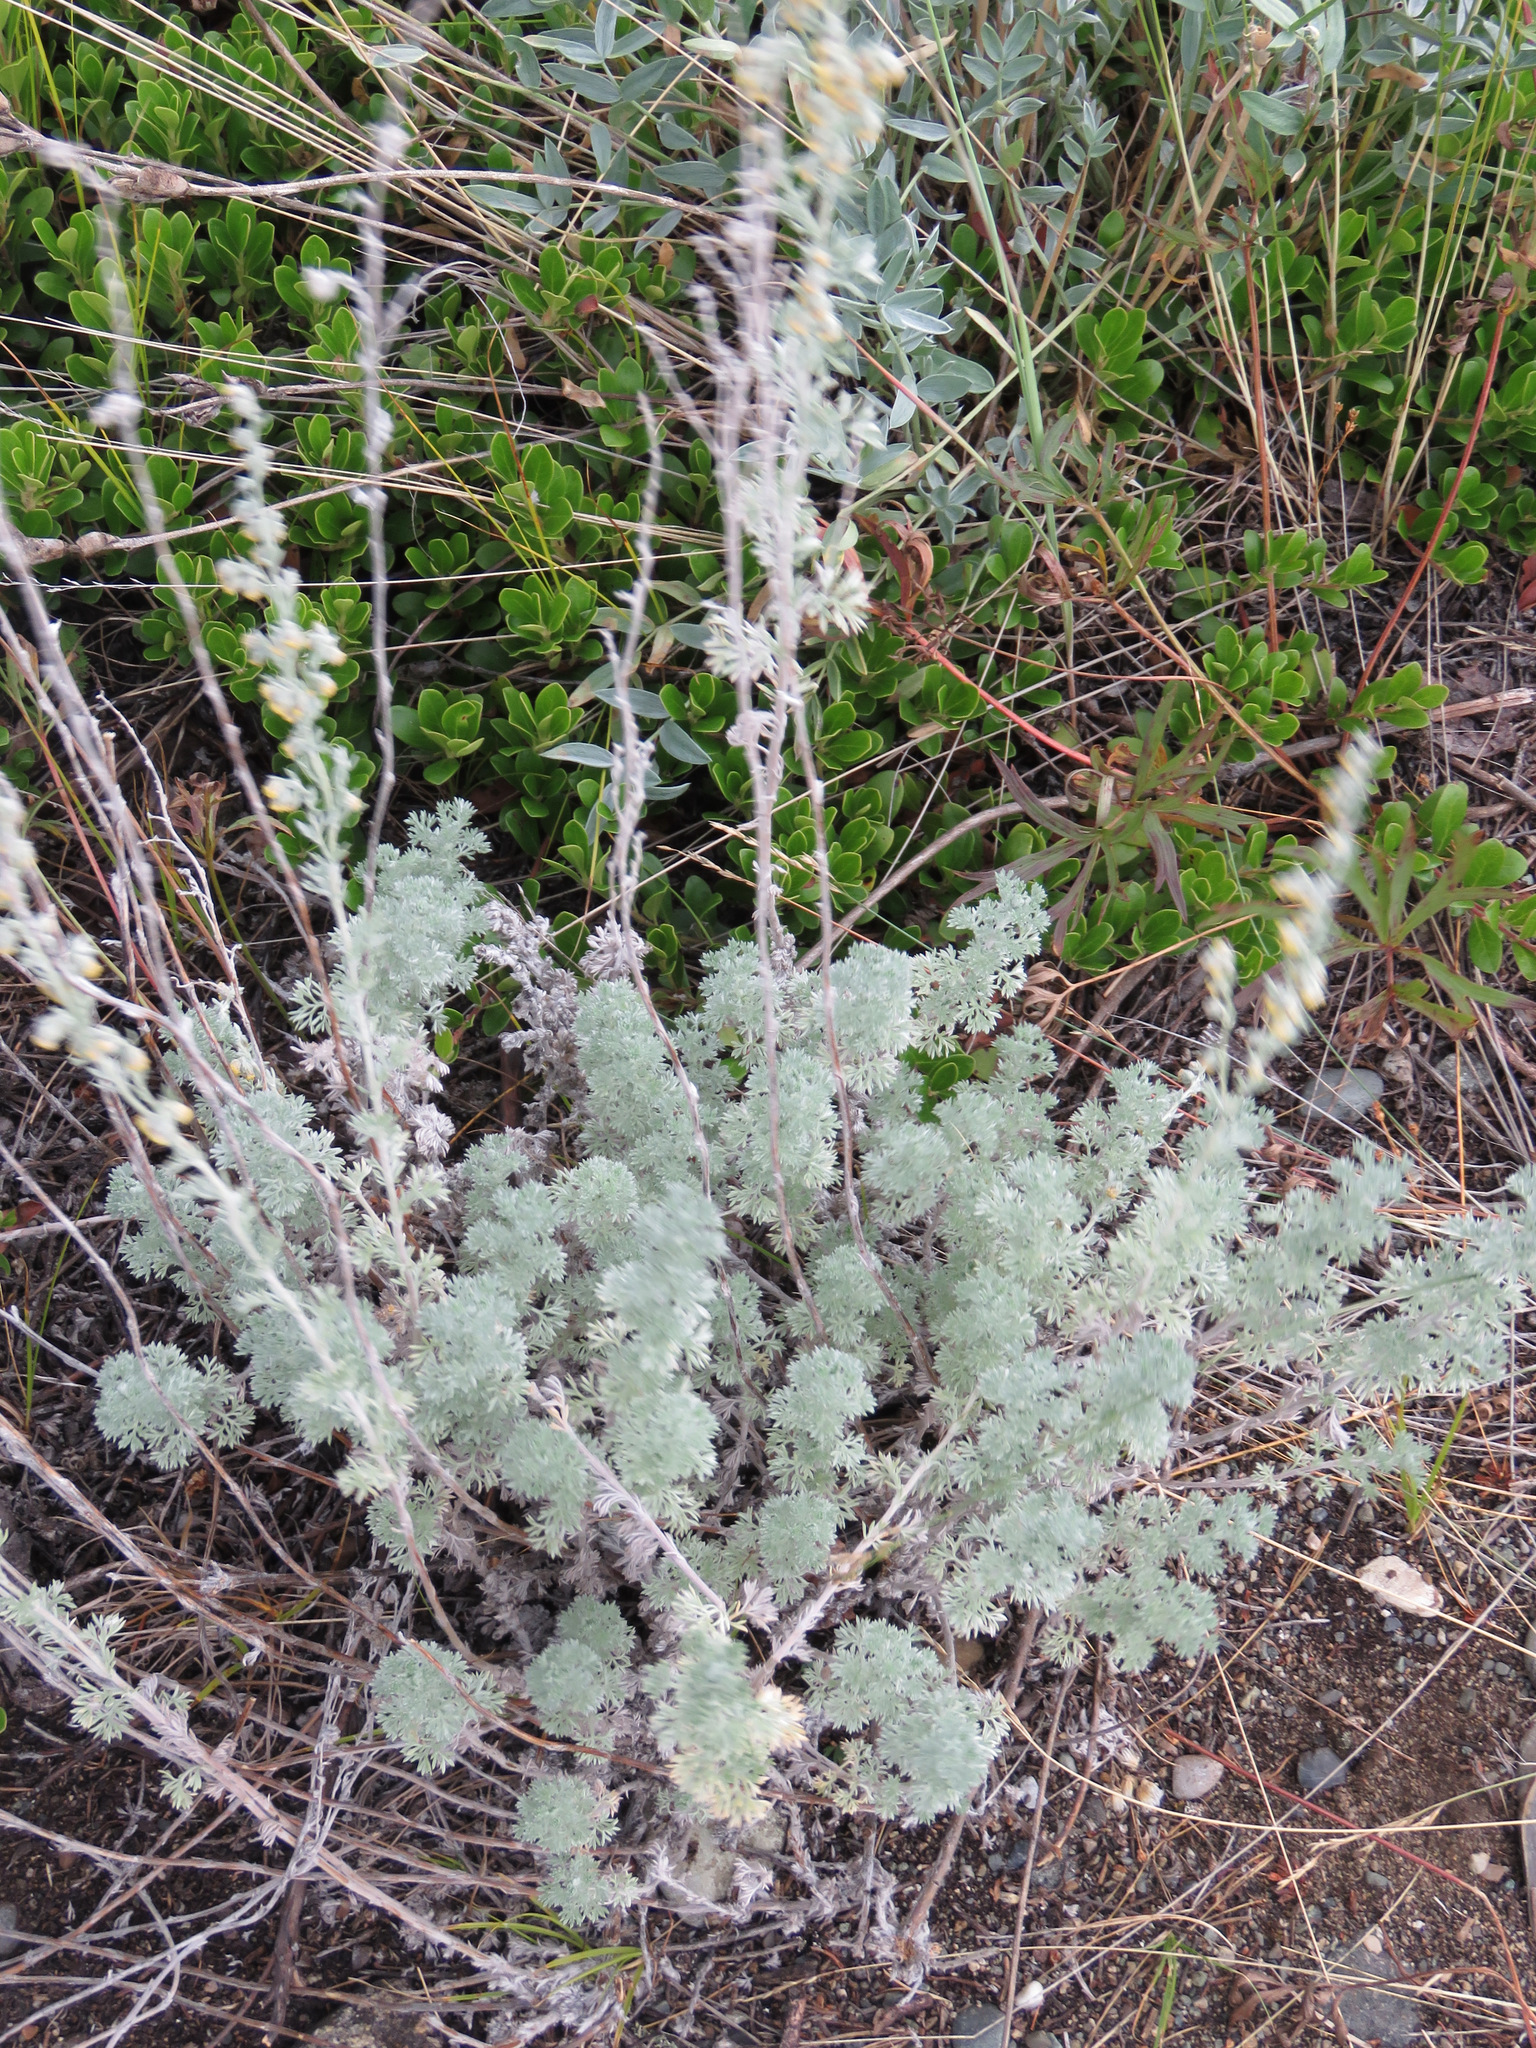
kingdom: Plantae
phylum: Tracheophyta
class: Magnoliopsida
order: Asterales
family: Asteraceae
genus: Artemisia
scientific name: Artemisia frigida
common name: Prairie sagewort
